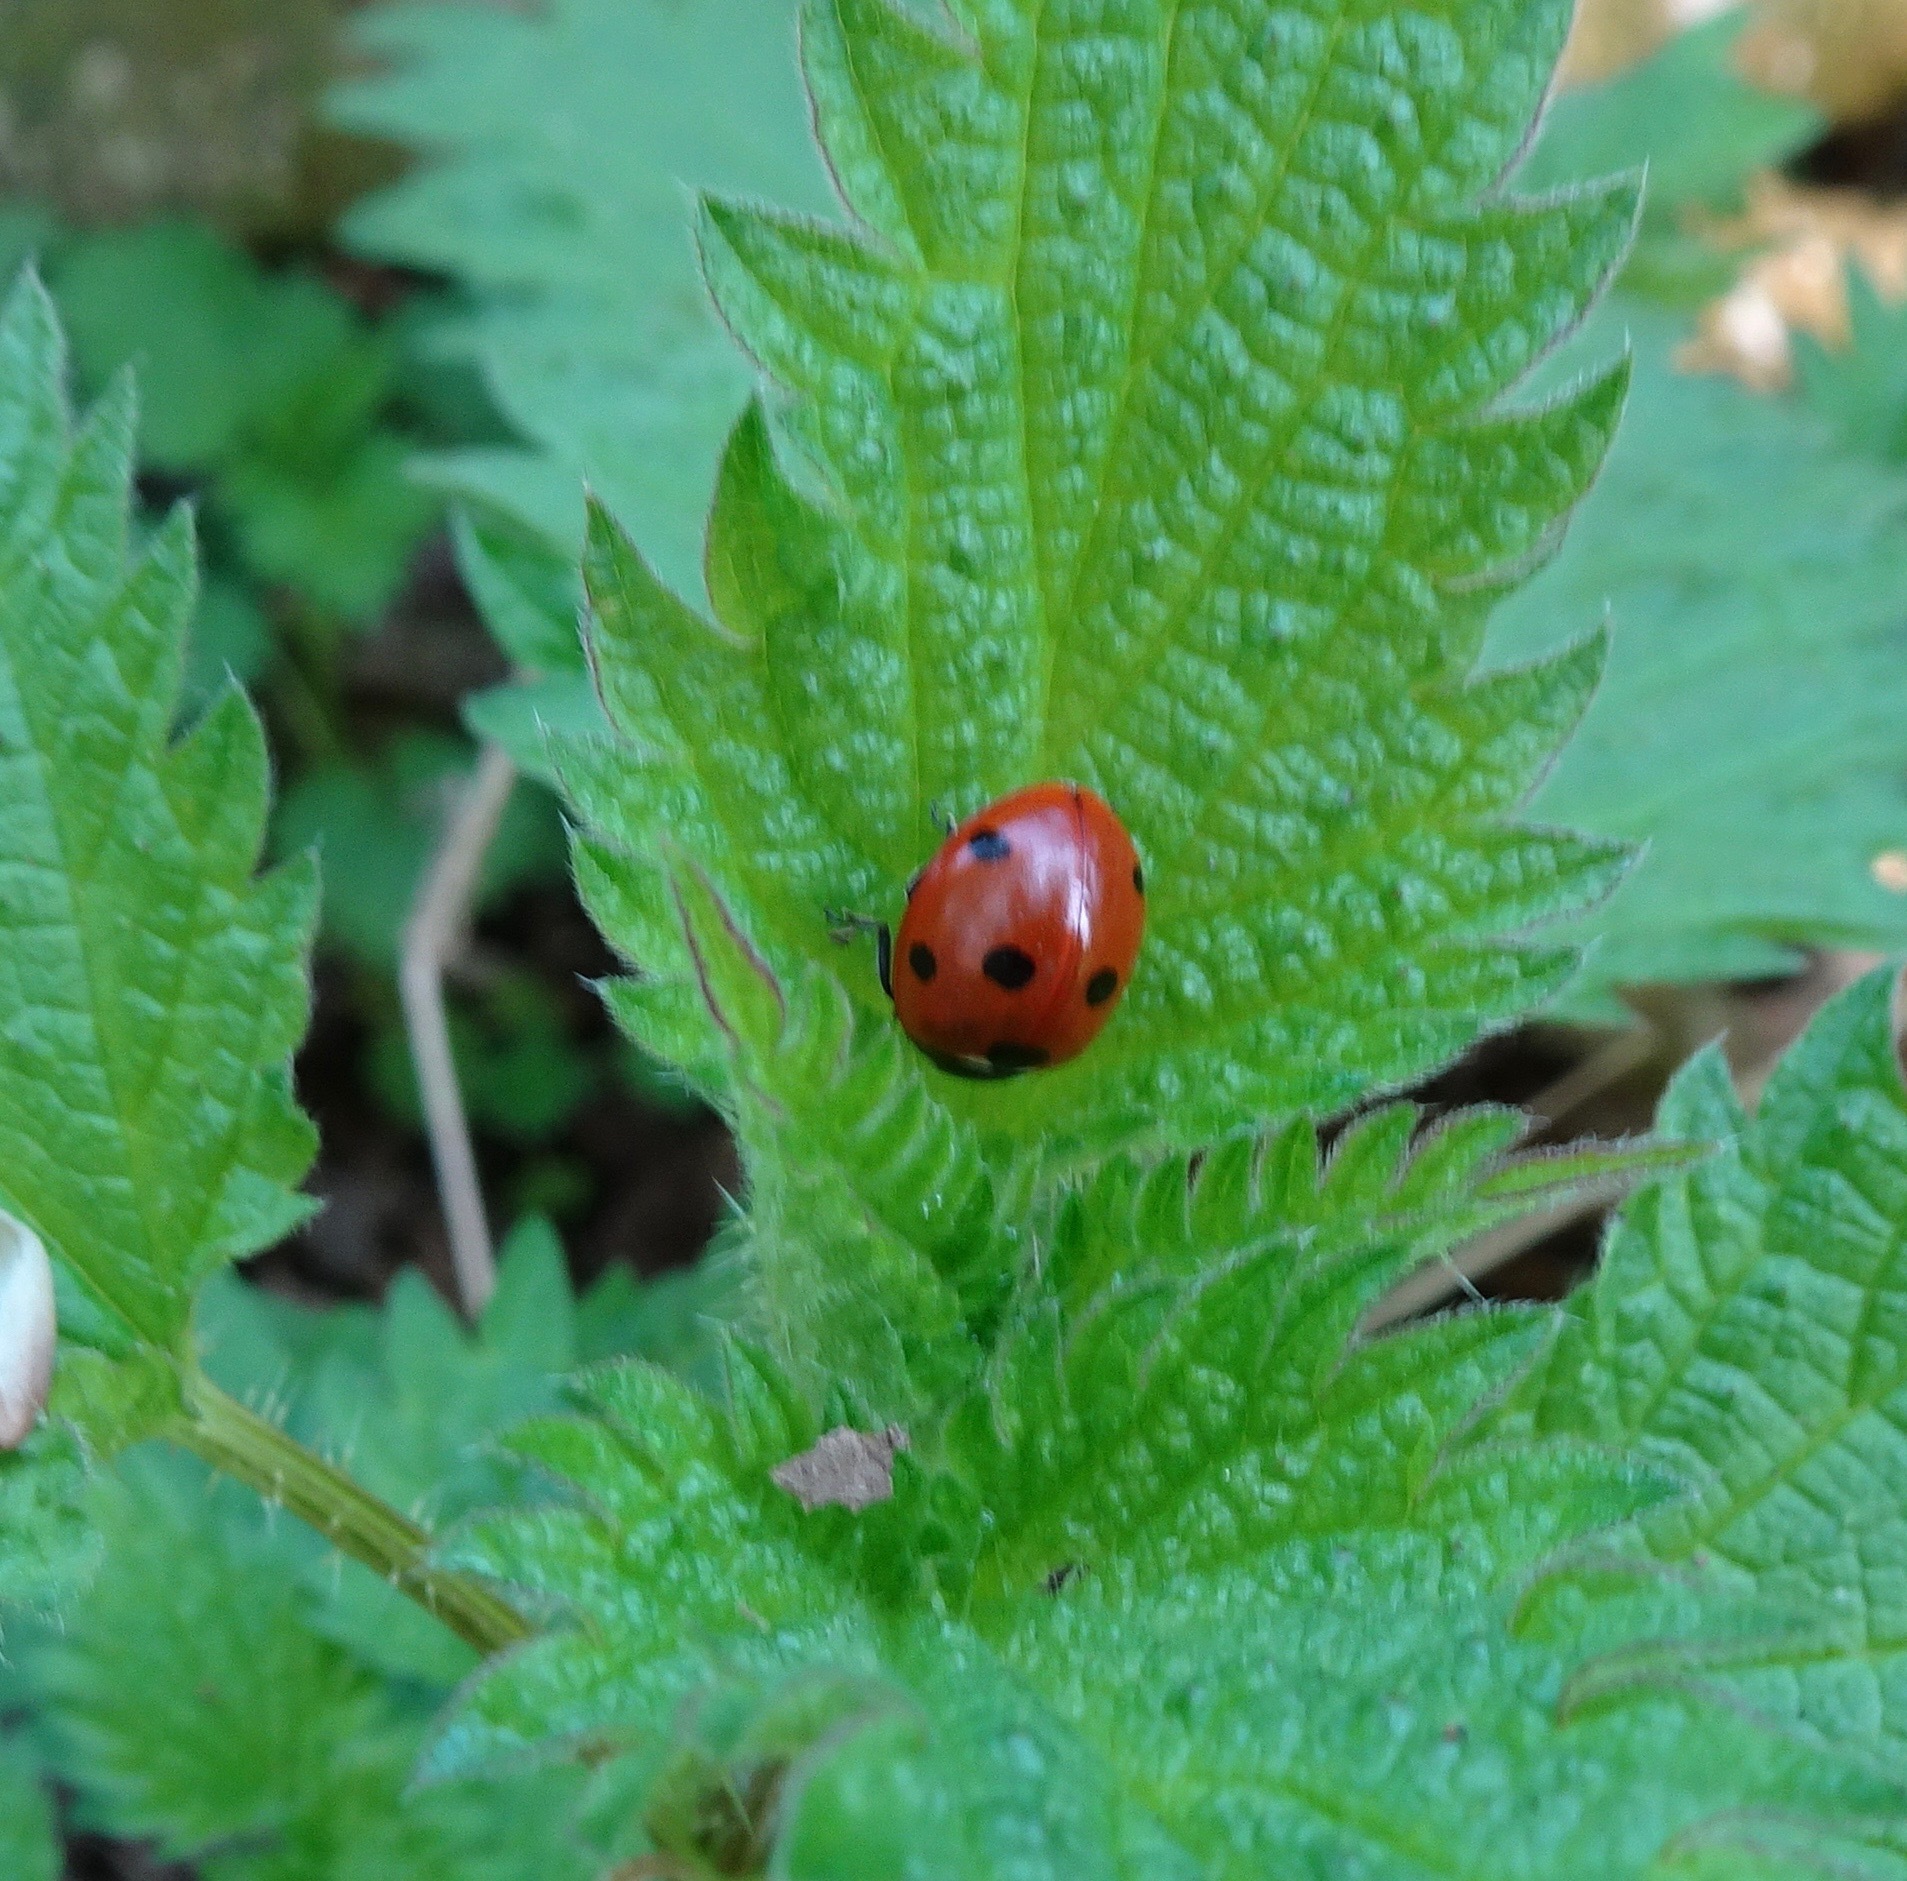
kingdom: Animalia
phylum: Arthropoda
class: Insecta
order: Coleoptera
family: Coccinellidae
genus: Coccinella
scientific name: Coccinella septempunctata
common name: Sevenspotted lady beetle
